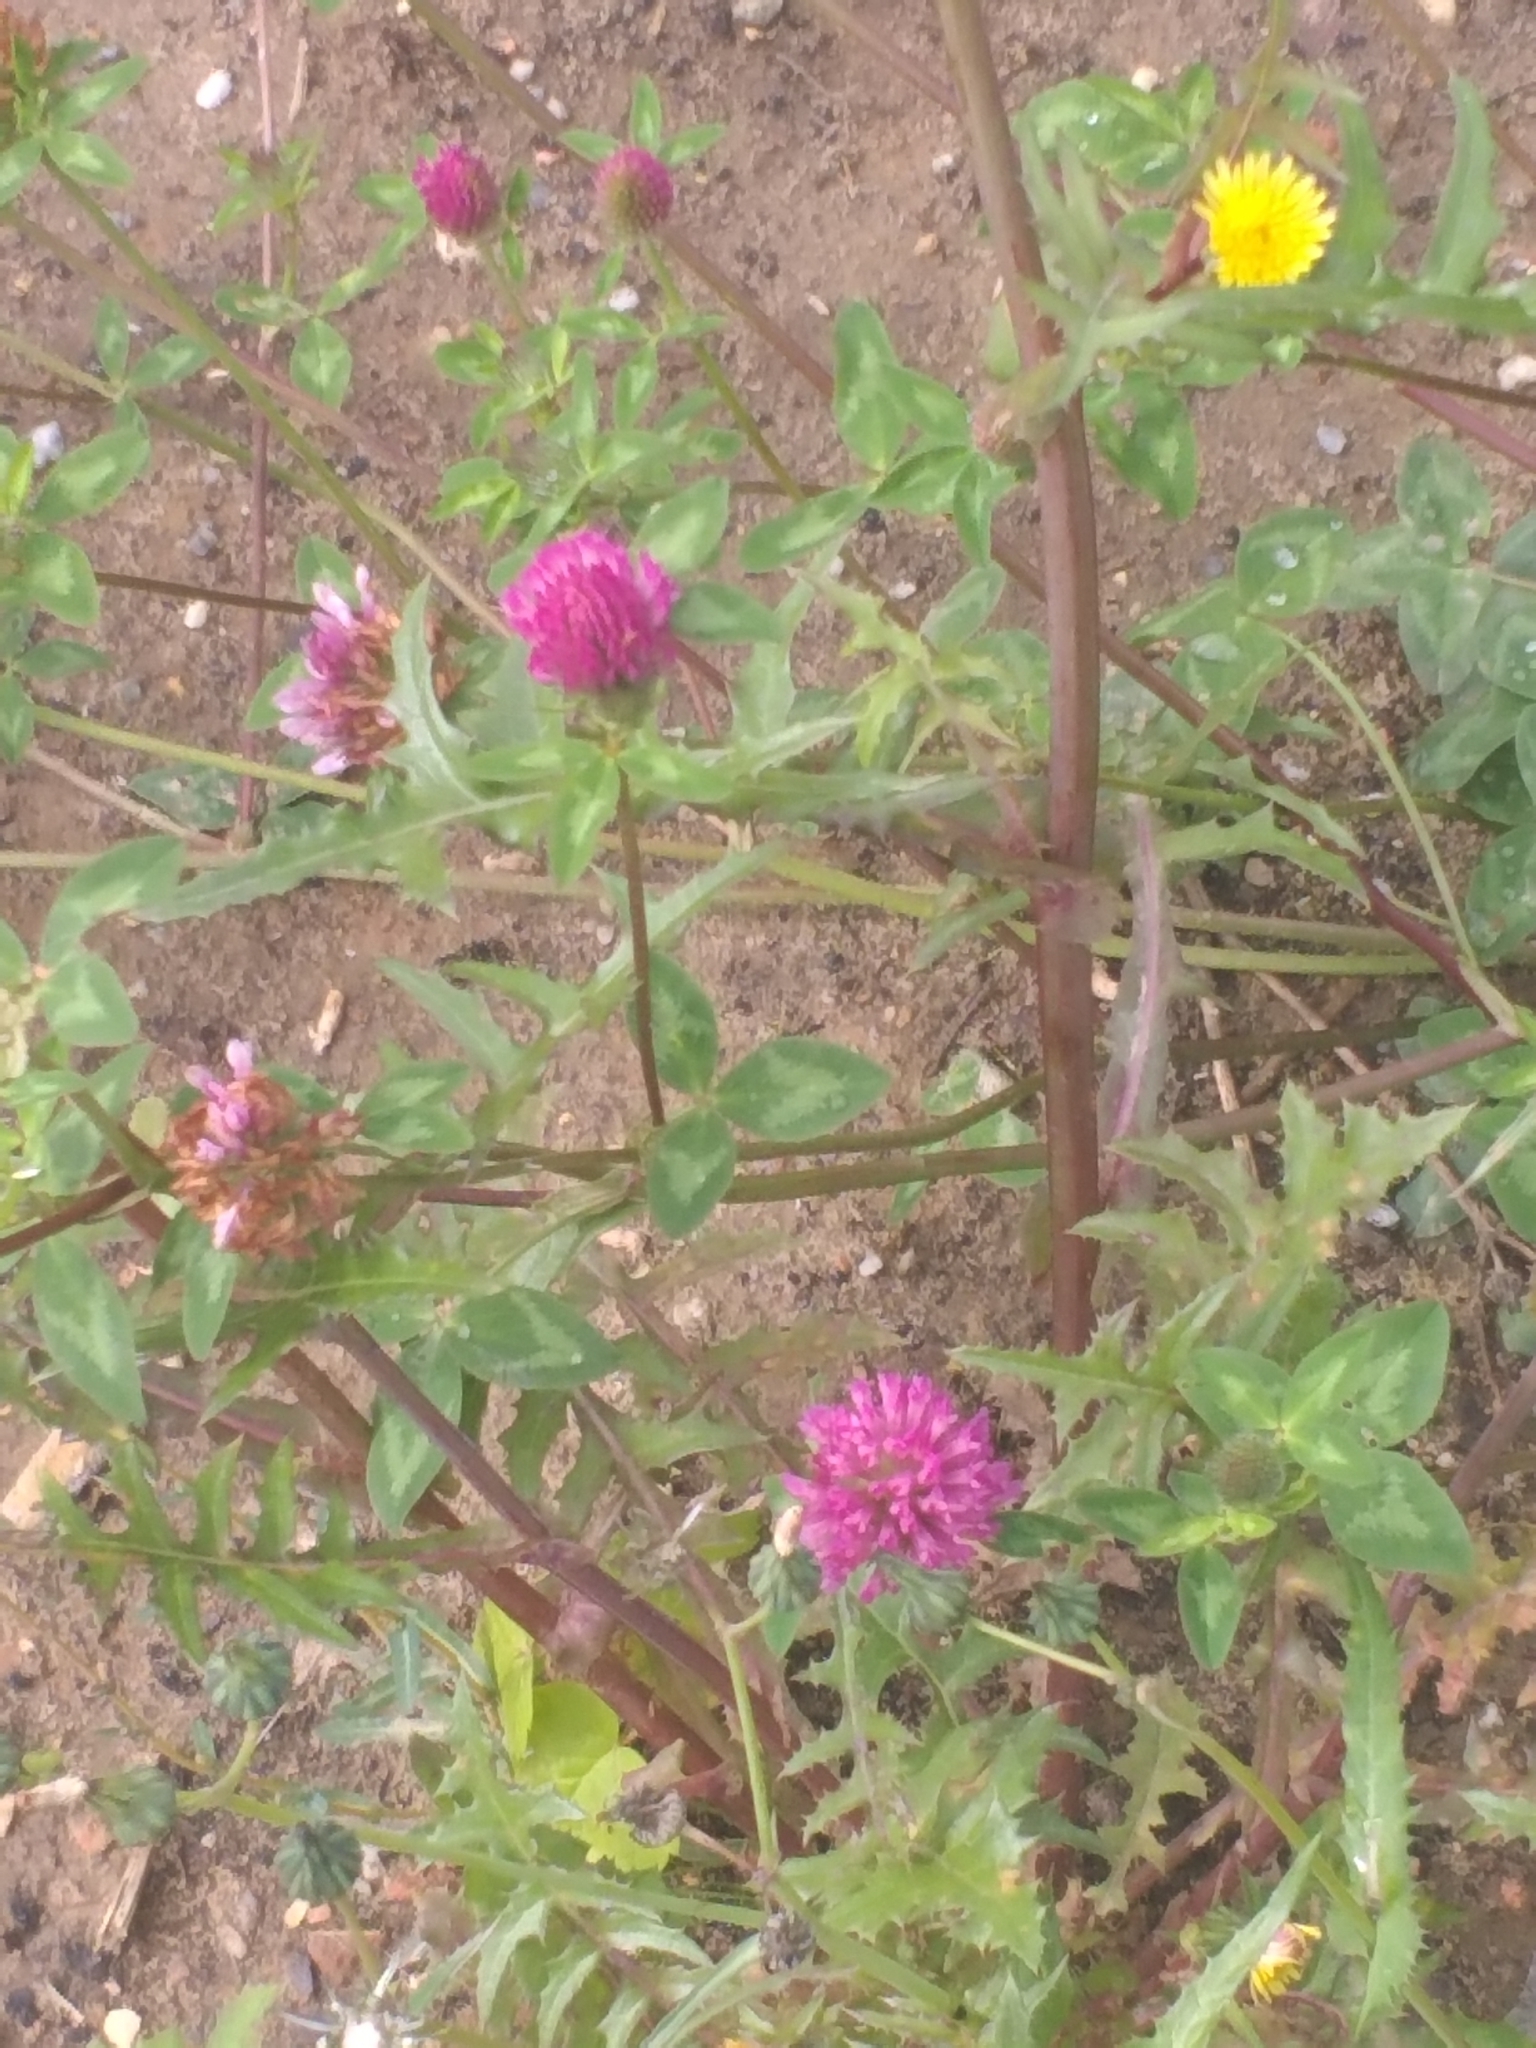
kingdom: Plantae
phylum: Tracheophyta
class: Magnoliopsida
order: Fabales
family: Fabaceae
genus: Trifolium
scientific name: Trifolium pratense
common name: Red clover
